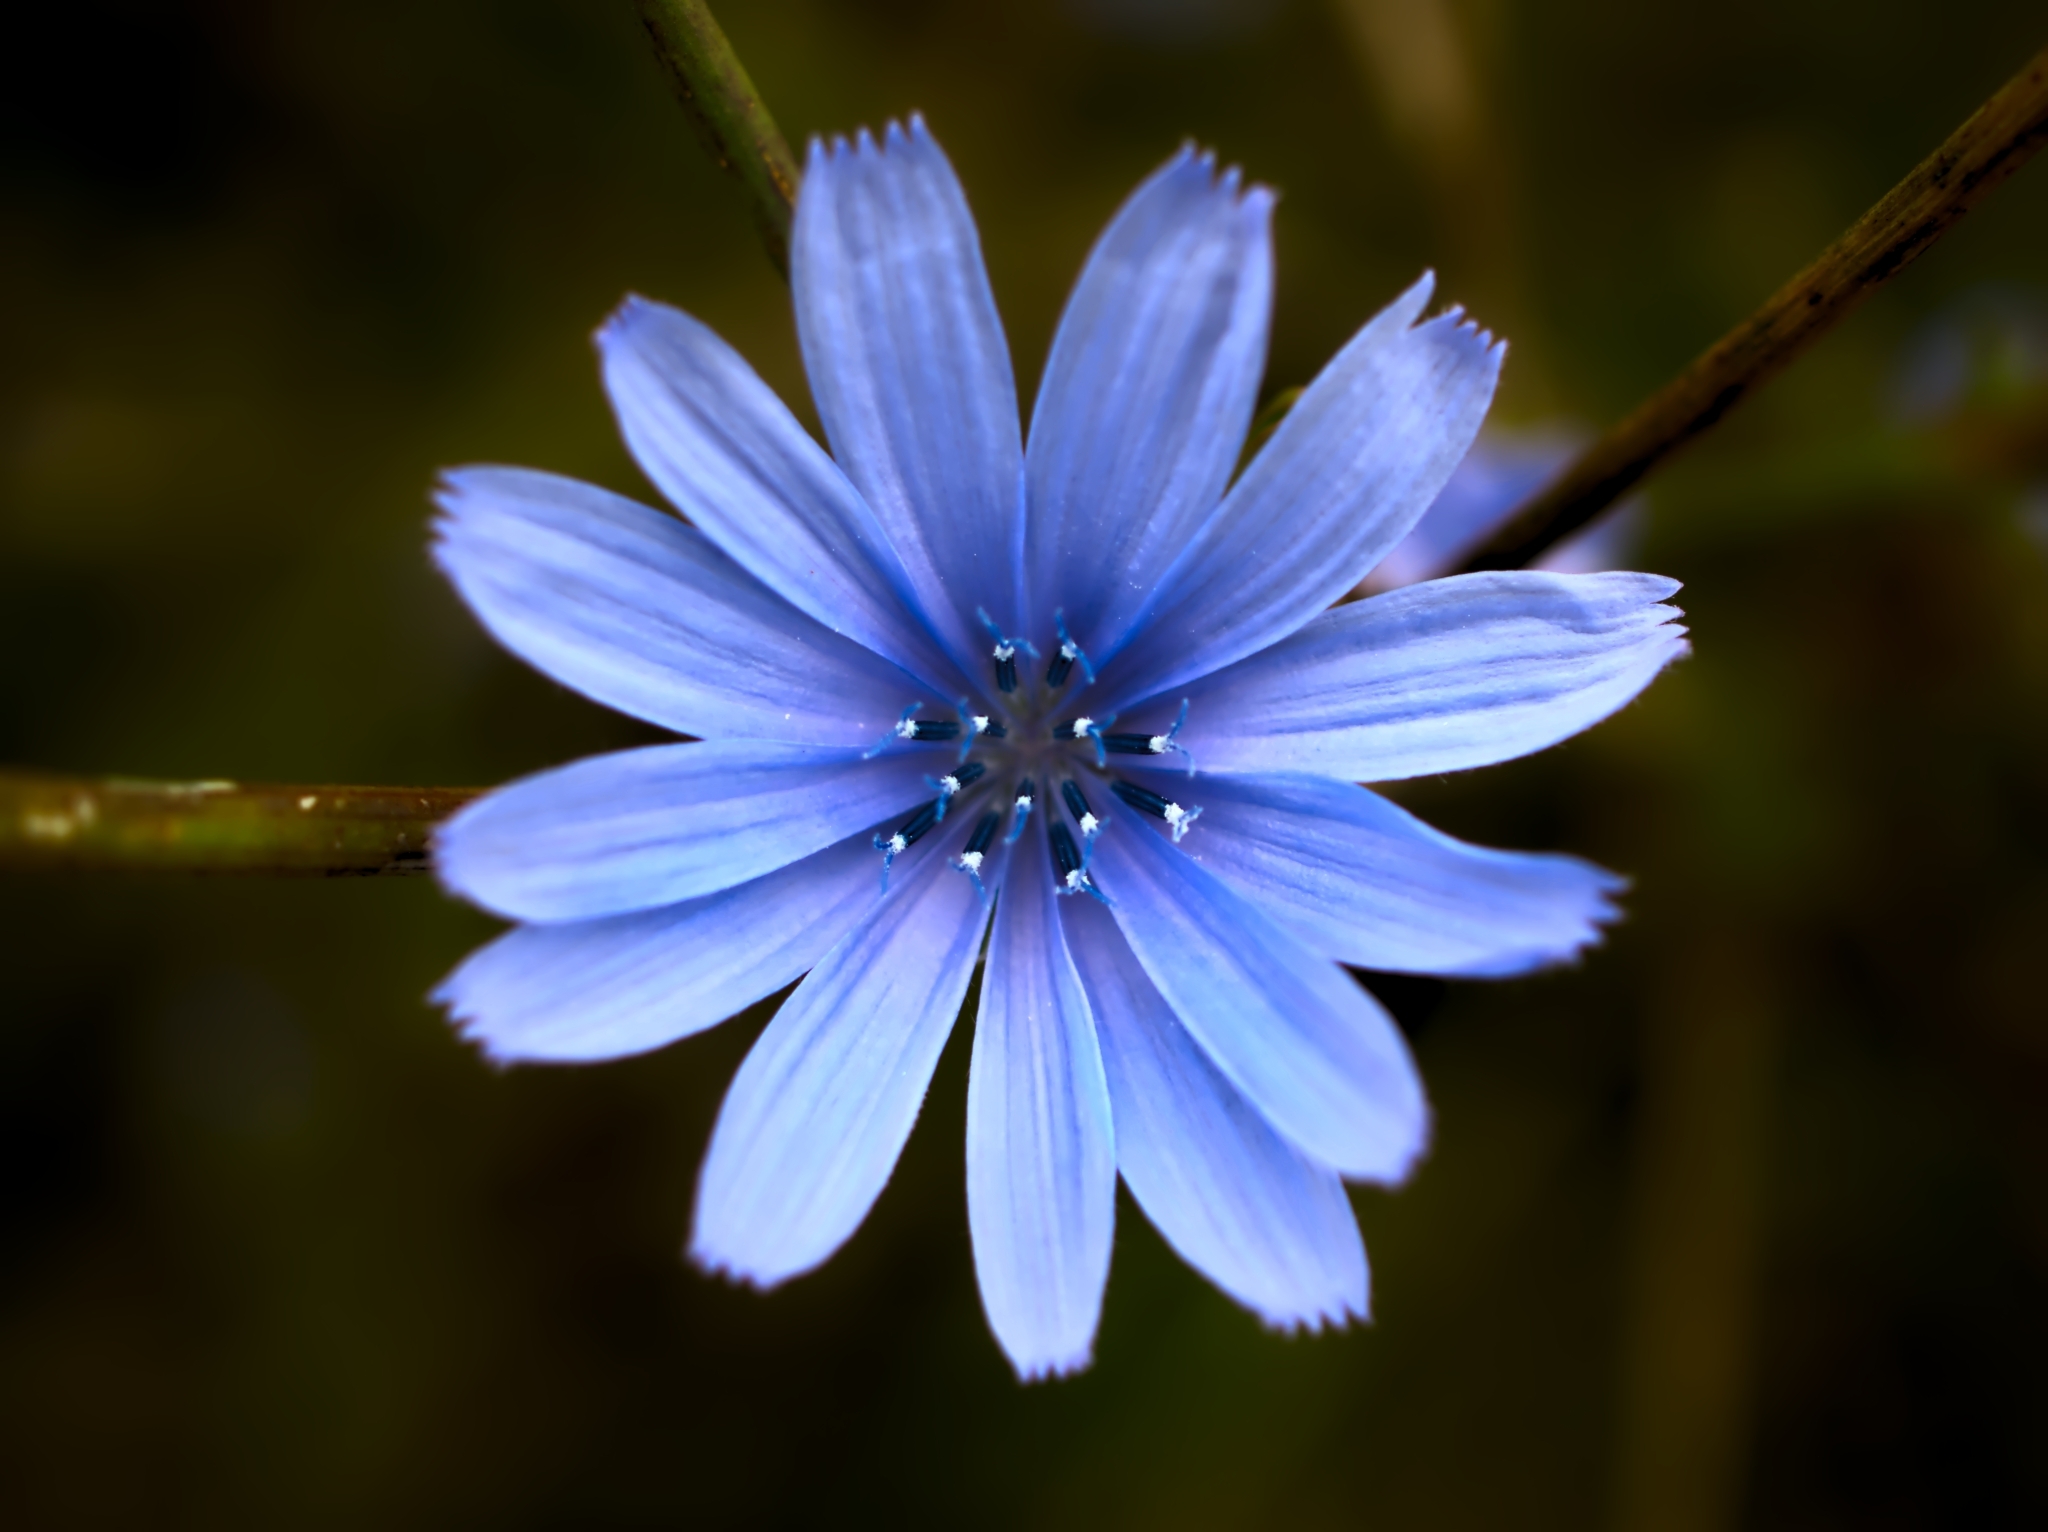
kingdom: Plantae
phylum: Tracheophyta
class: Magnoliopsida
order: Asterales
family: Asteraceae
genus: Cichorium
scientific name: Cichorium intybus
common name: Chicory
